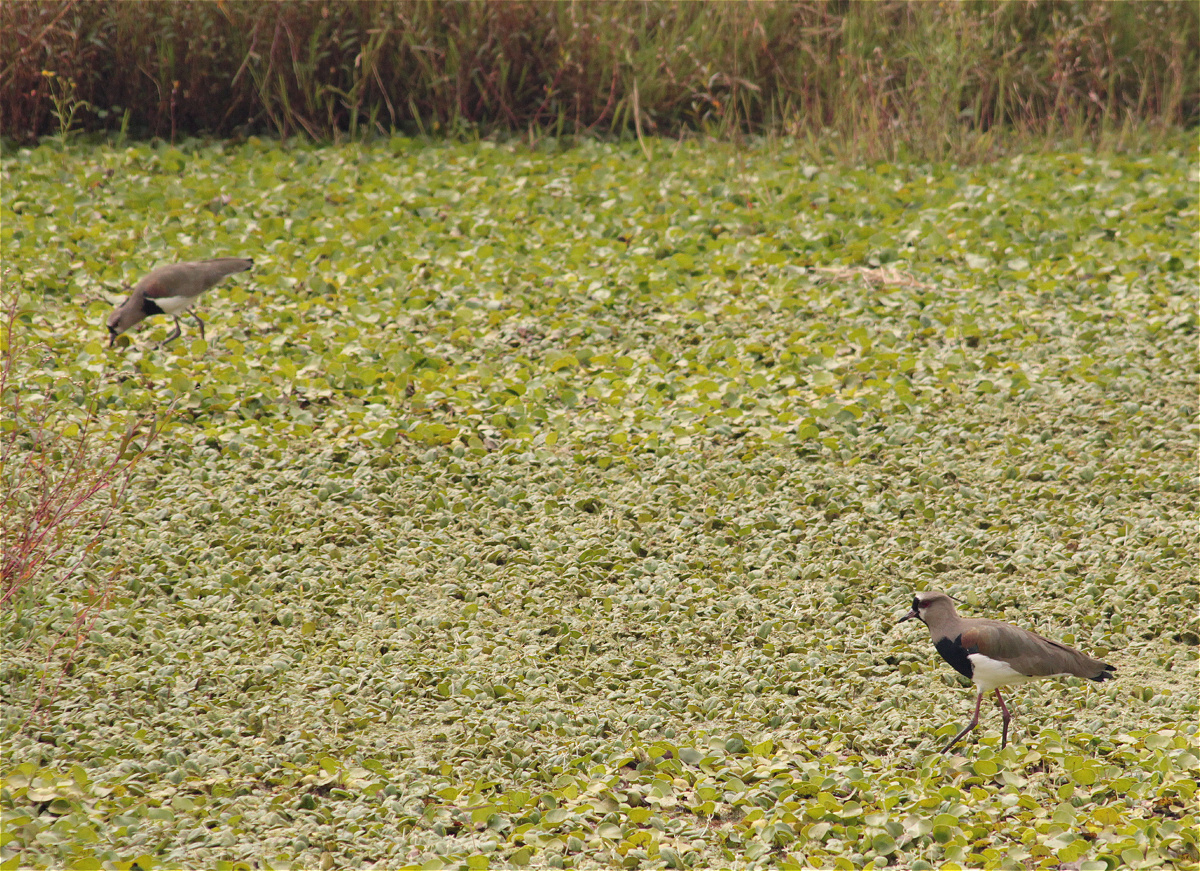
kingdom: Animalia
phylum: Chordata
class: Aves
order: Charadriiformes
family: Charadriidae
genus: Vanellus
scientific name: Vanellus chilensis
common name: Southern lapwing
